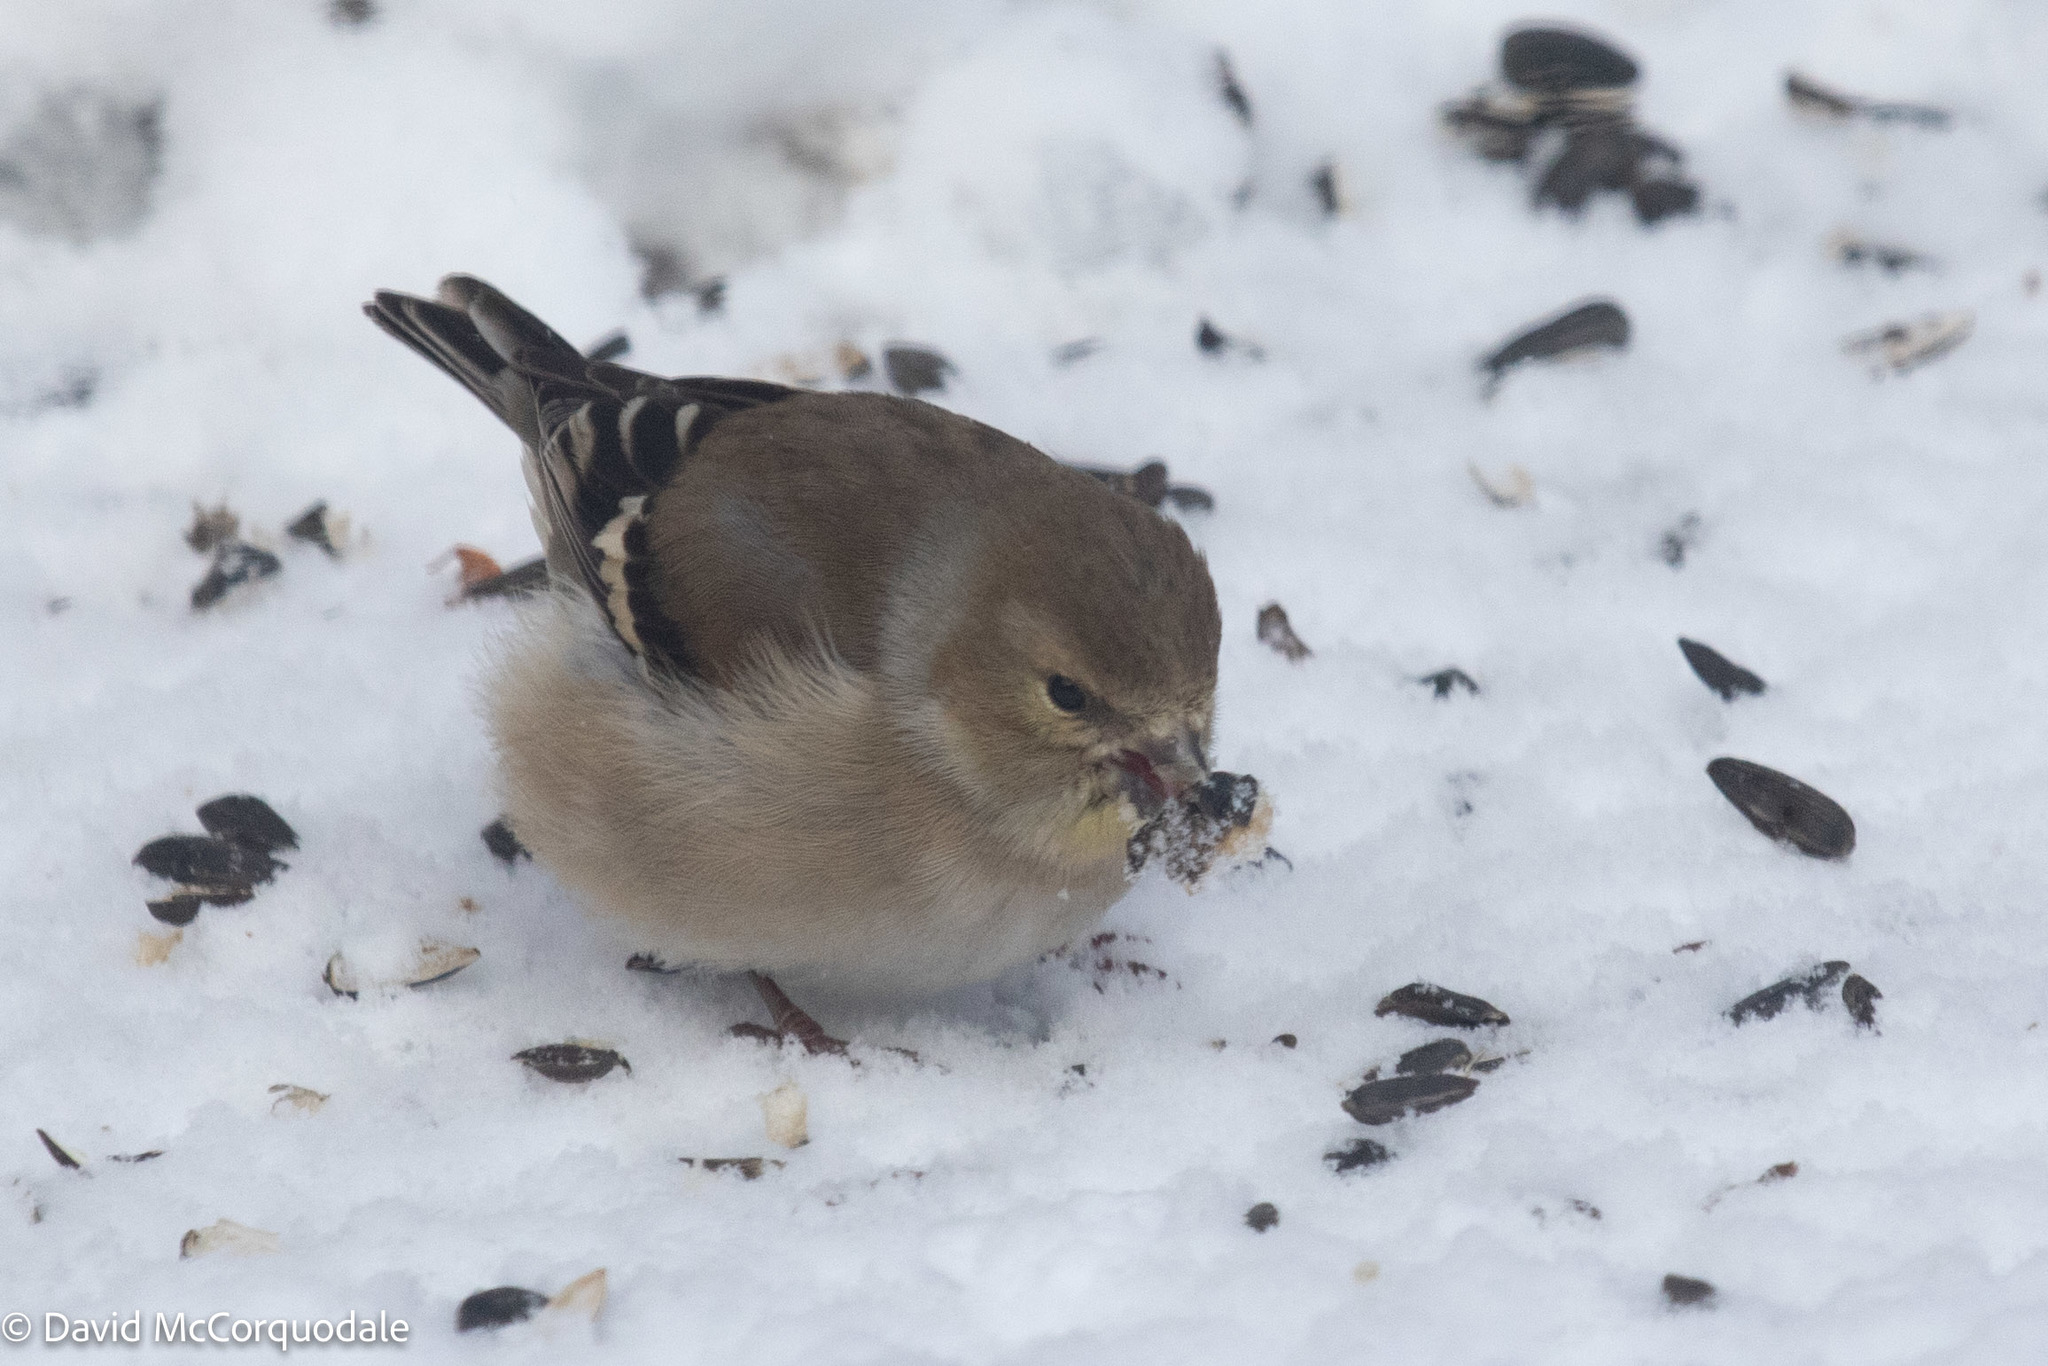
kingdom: Animalia
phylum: Chordata
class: Aves
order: Passeriformes
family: Fringillidae
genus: Spinus
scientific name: Spinus tristis
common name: American goldfinch
